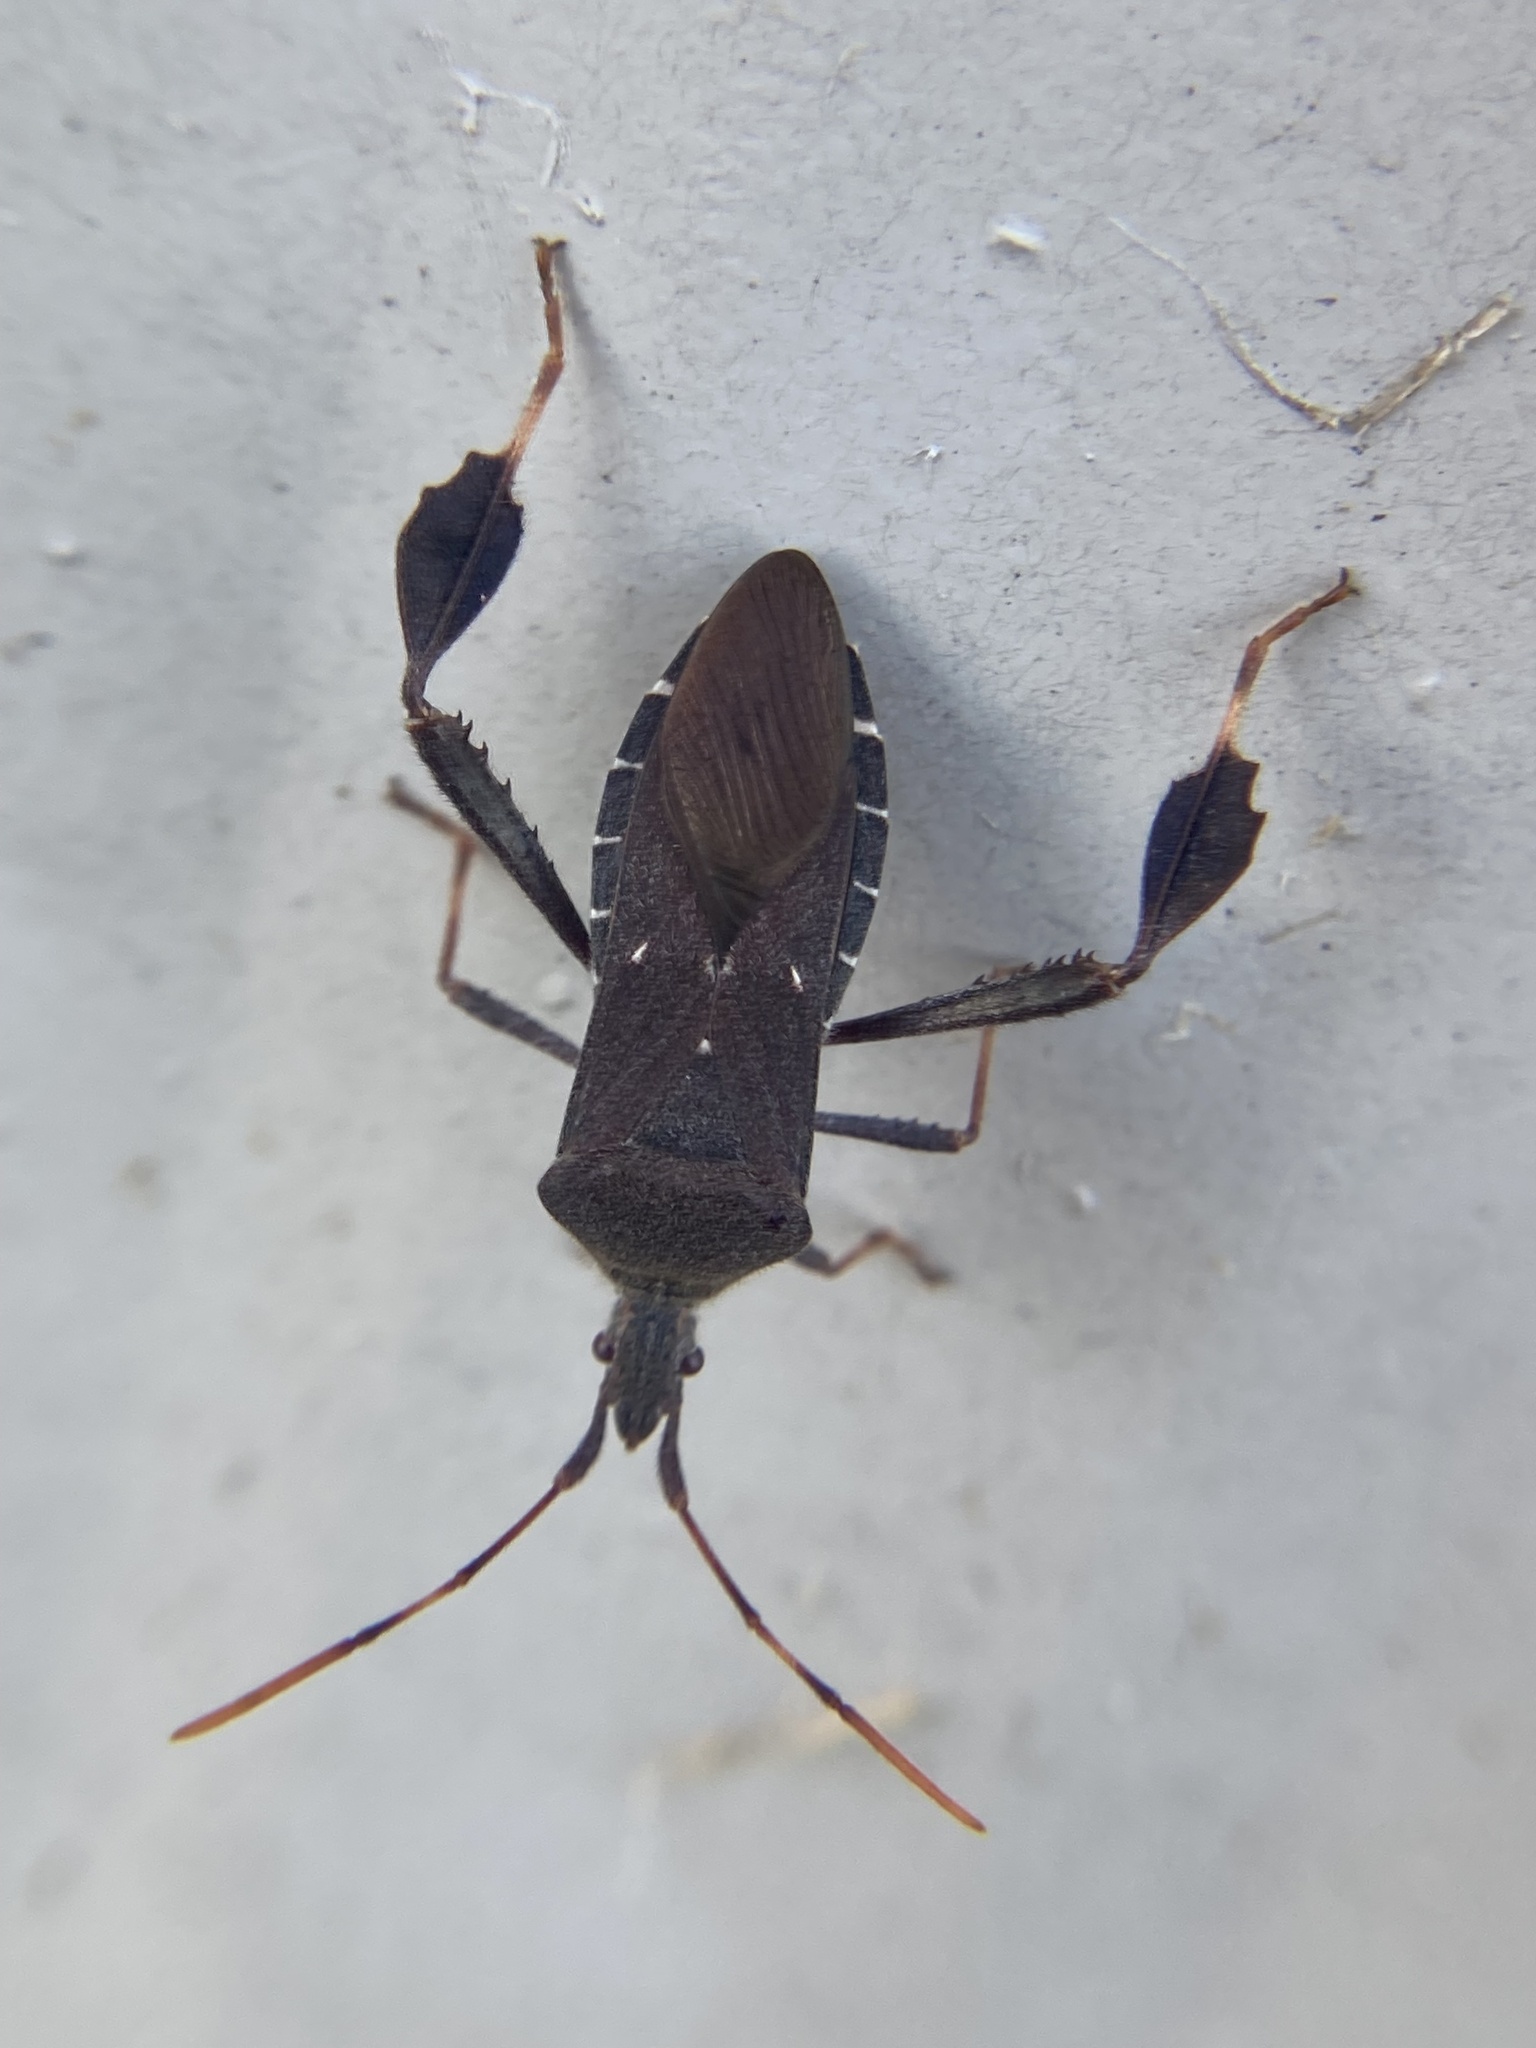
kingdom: Animalia
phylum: Arthropoda
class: Insecta
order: Hemiptera
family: Coreidae
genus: Leptoglossus
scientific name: Leptoglossus oppositus
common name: Northern leaf-footed bug
